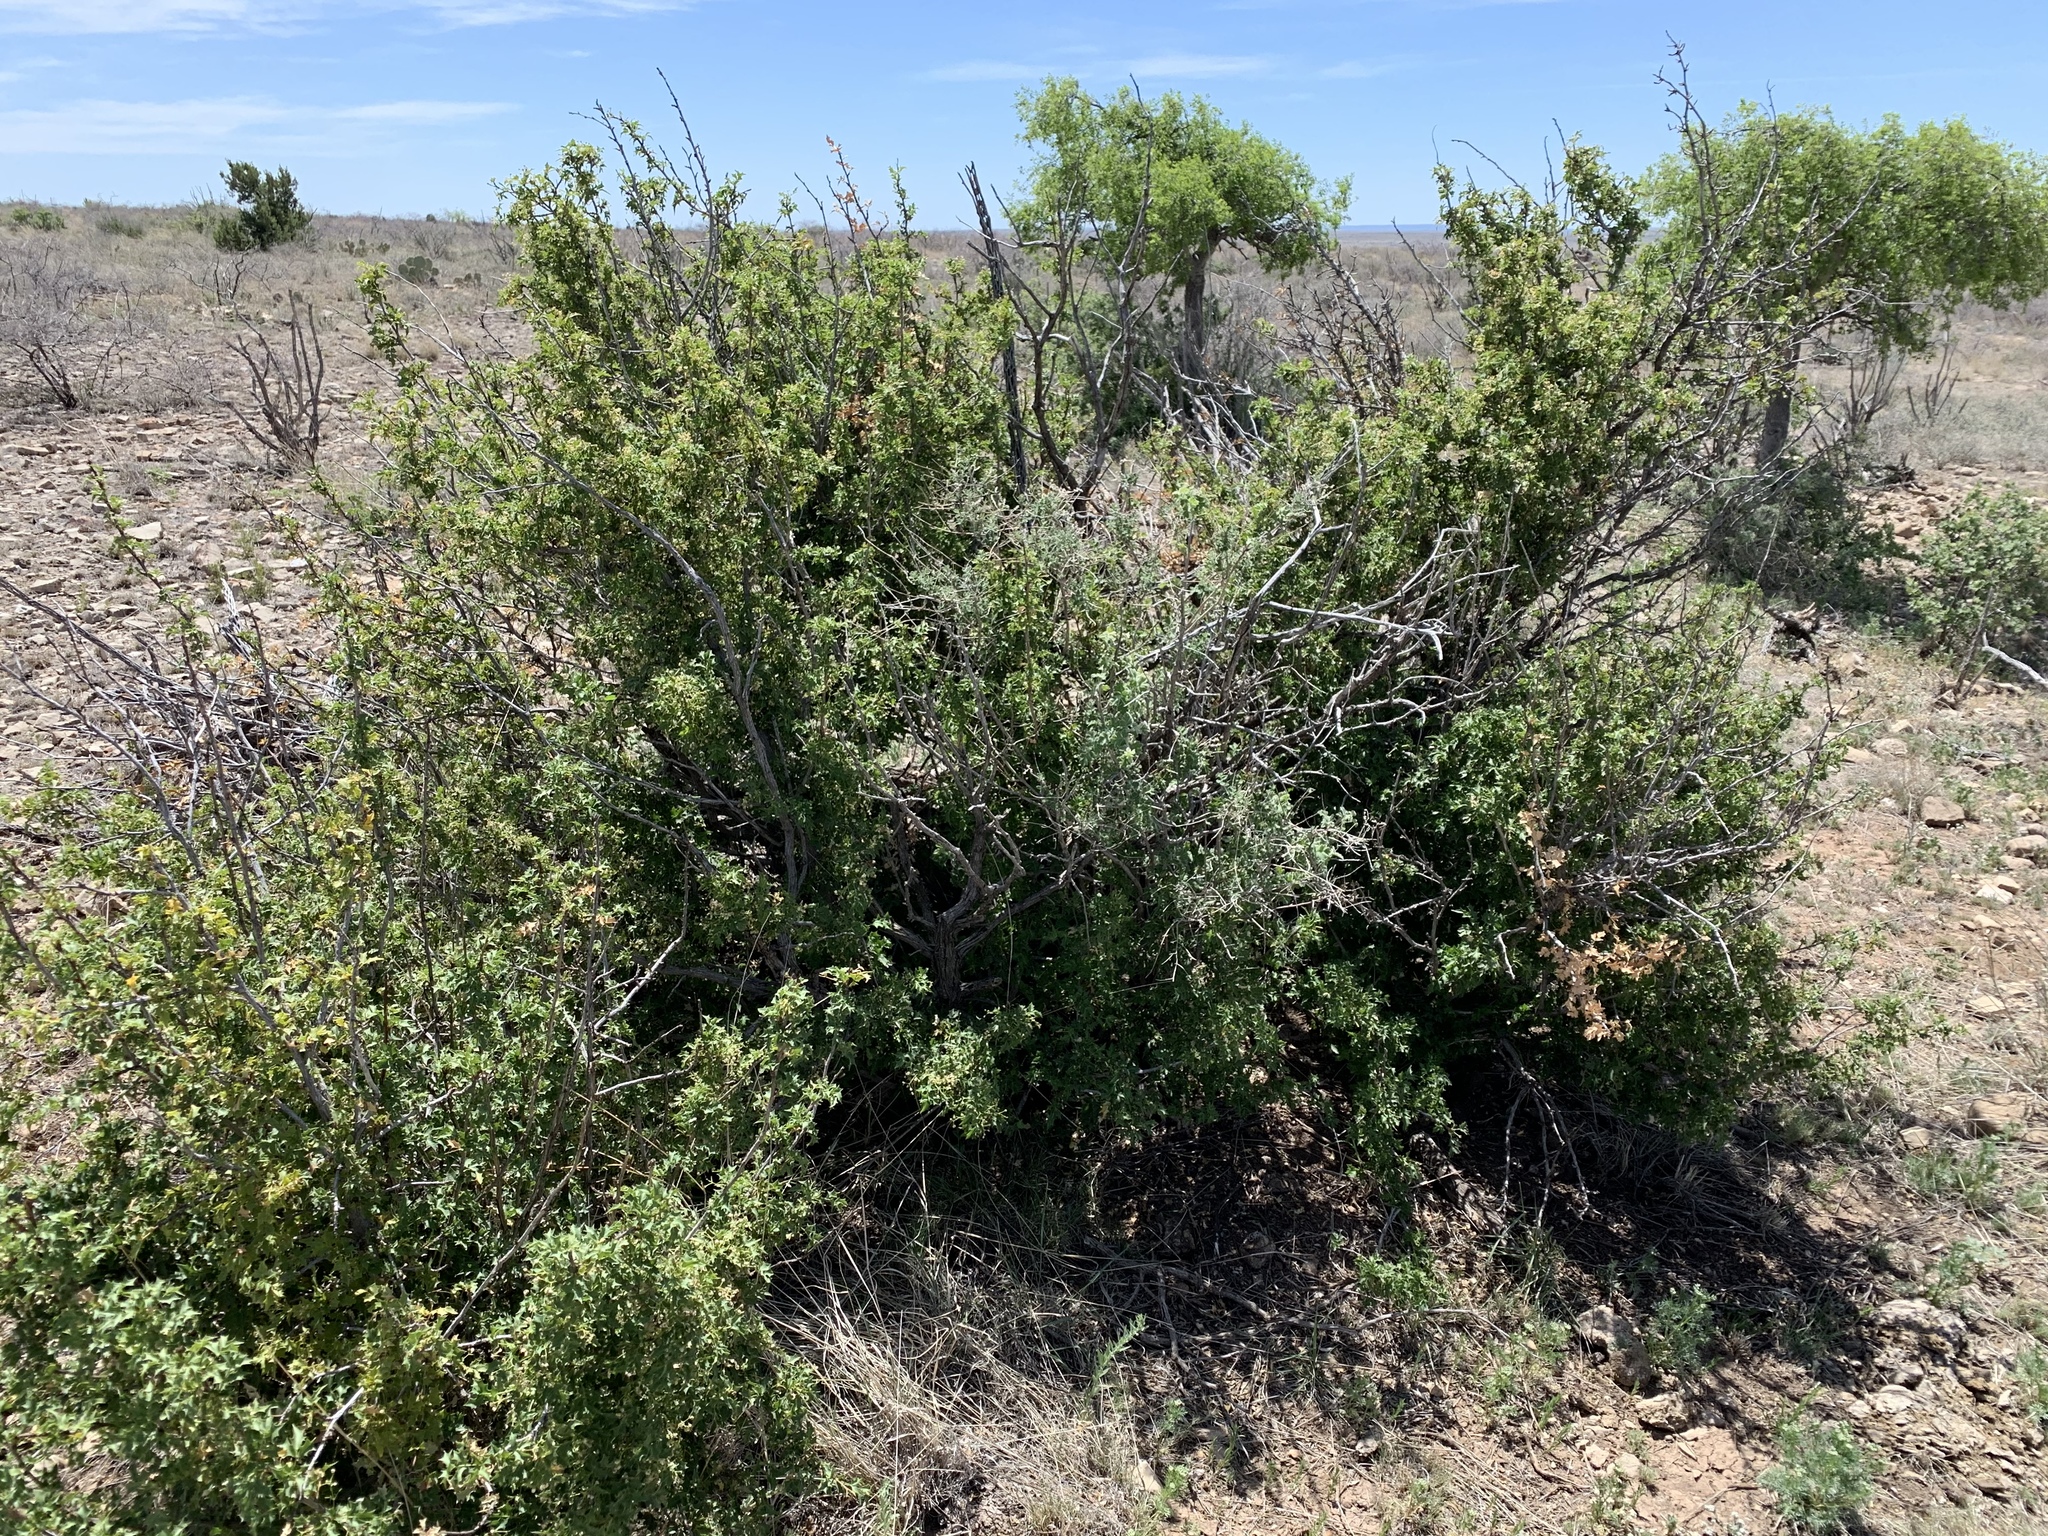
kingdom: Plantae
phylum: Tracheophyta
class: Magnoliopsida
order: Ranunculales
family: Berberidaceae
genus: Alloberberis
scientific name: Alloberberis haematocarpa
